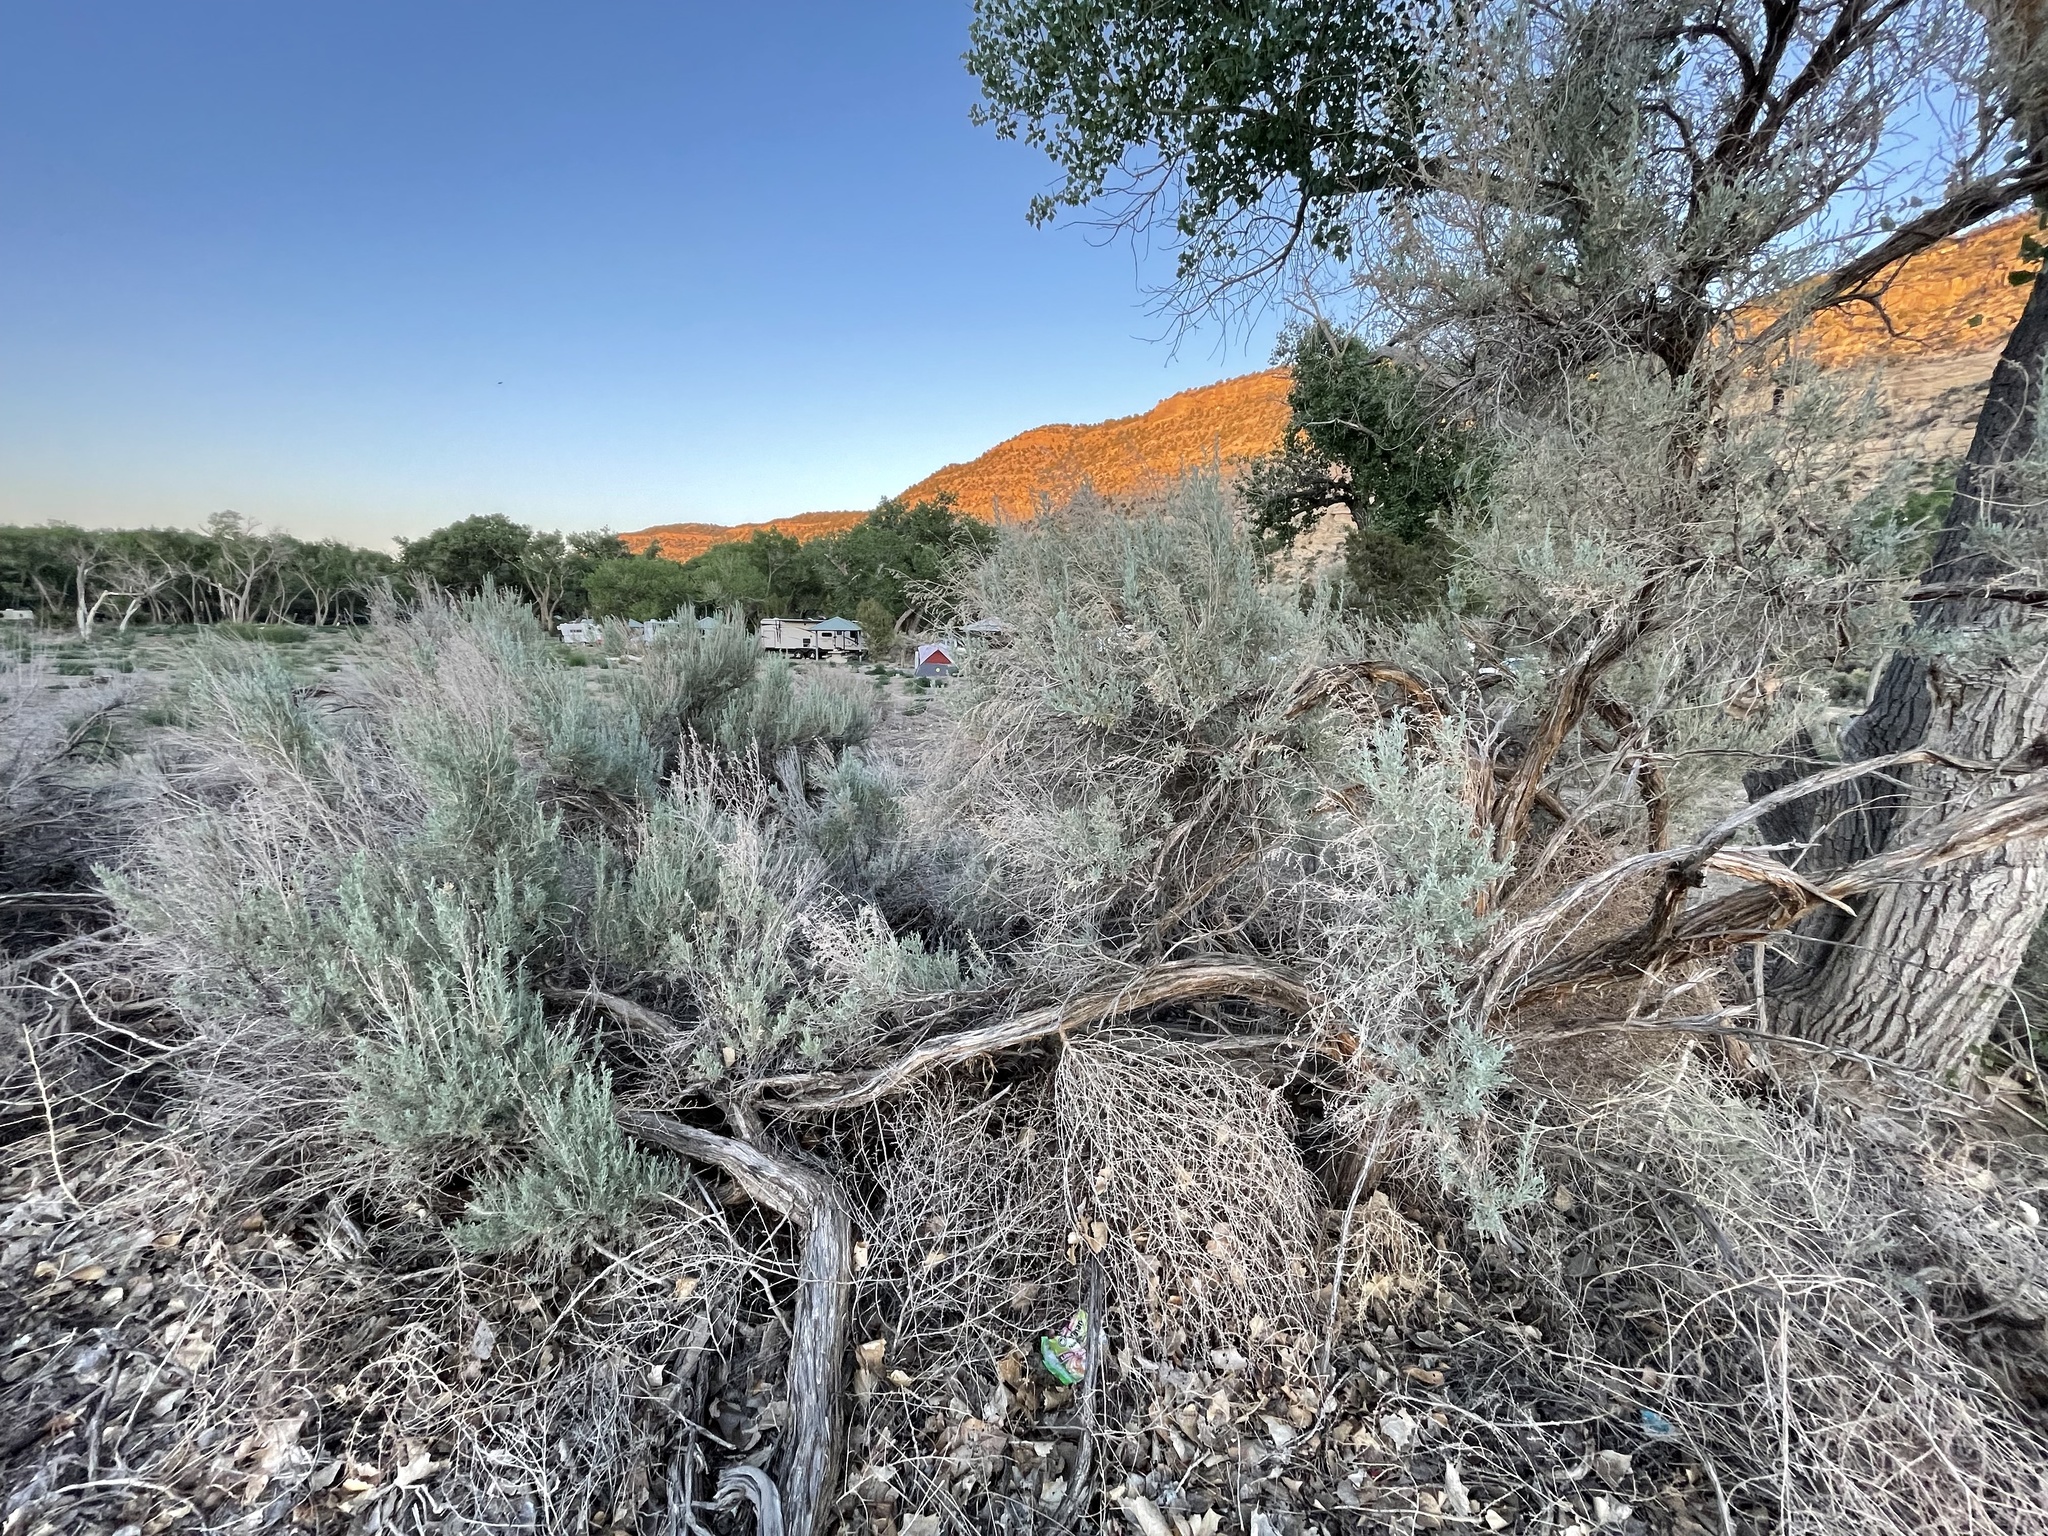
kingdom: Plantae
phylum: Tracheophyta
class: Magnoliopsida
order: Asterales
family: Asteraceae
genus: Artemisia
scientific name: Artemisia tridentata
